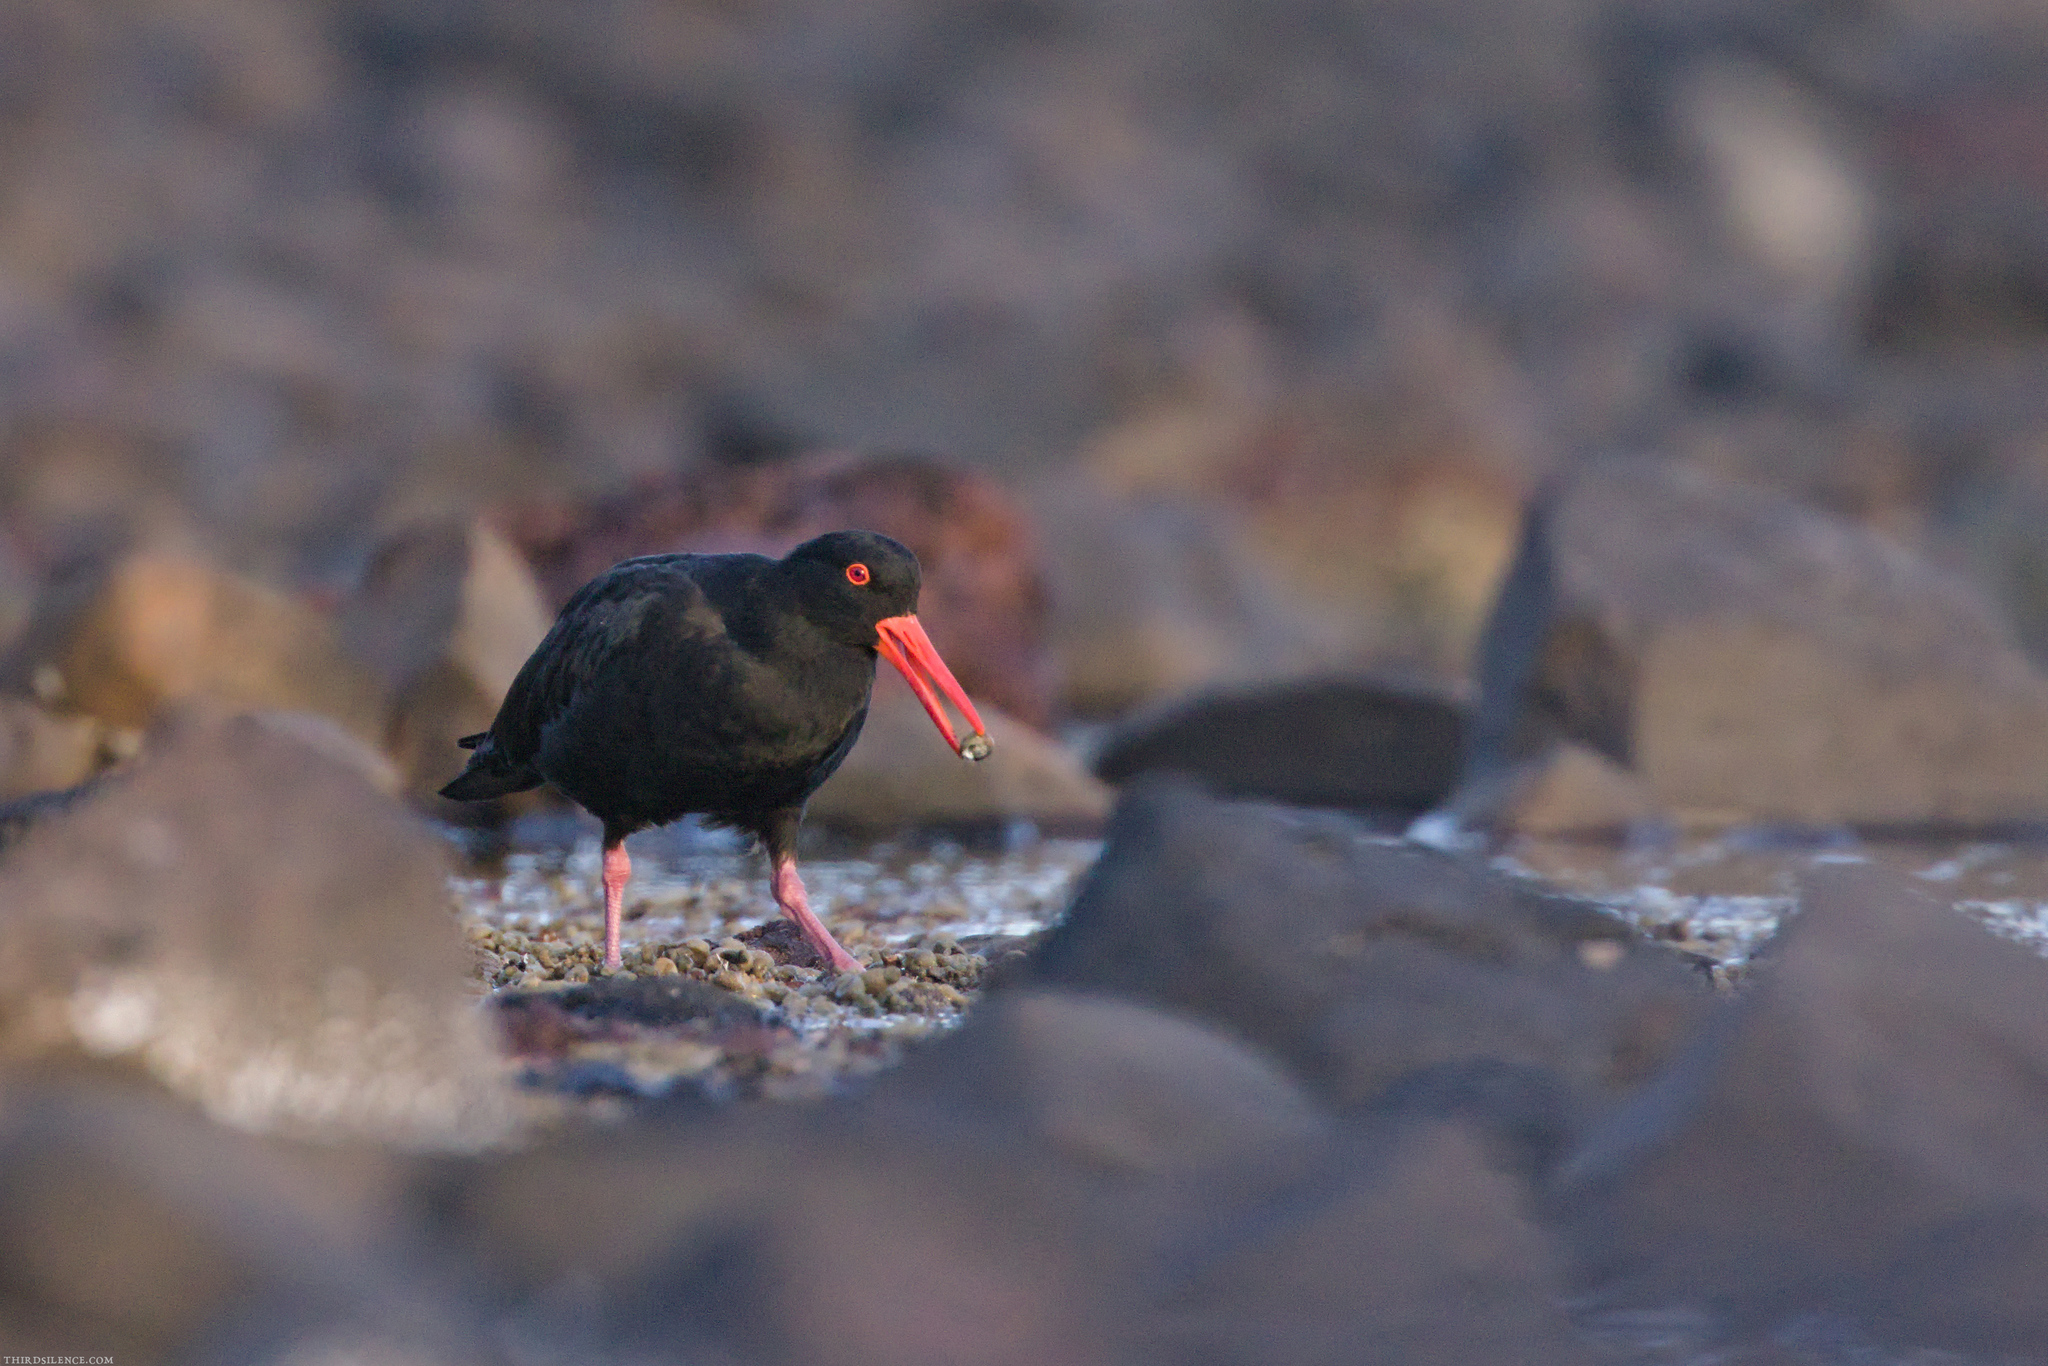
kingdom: Animalia
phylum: Chordata
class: Aves
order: Charadriiformes
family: Haematopodidae
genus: Haematopus
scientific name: Haematopus fuliginosus
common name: Sooty oystercatcher
